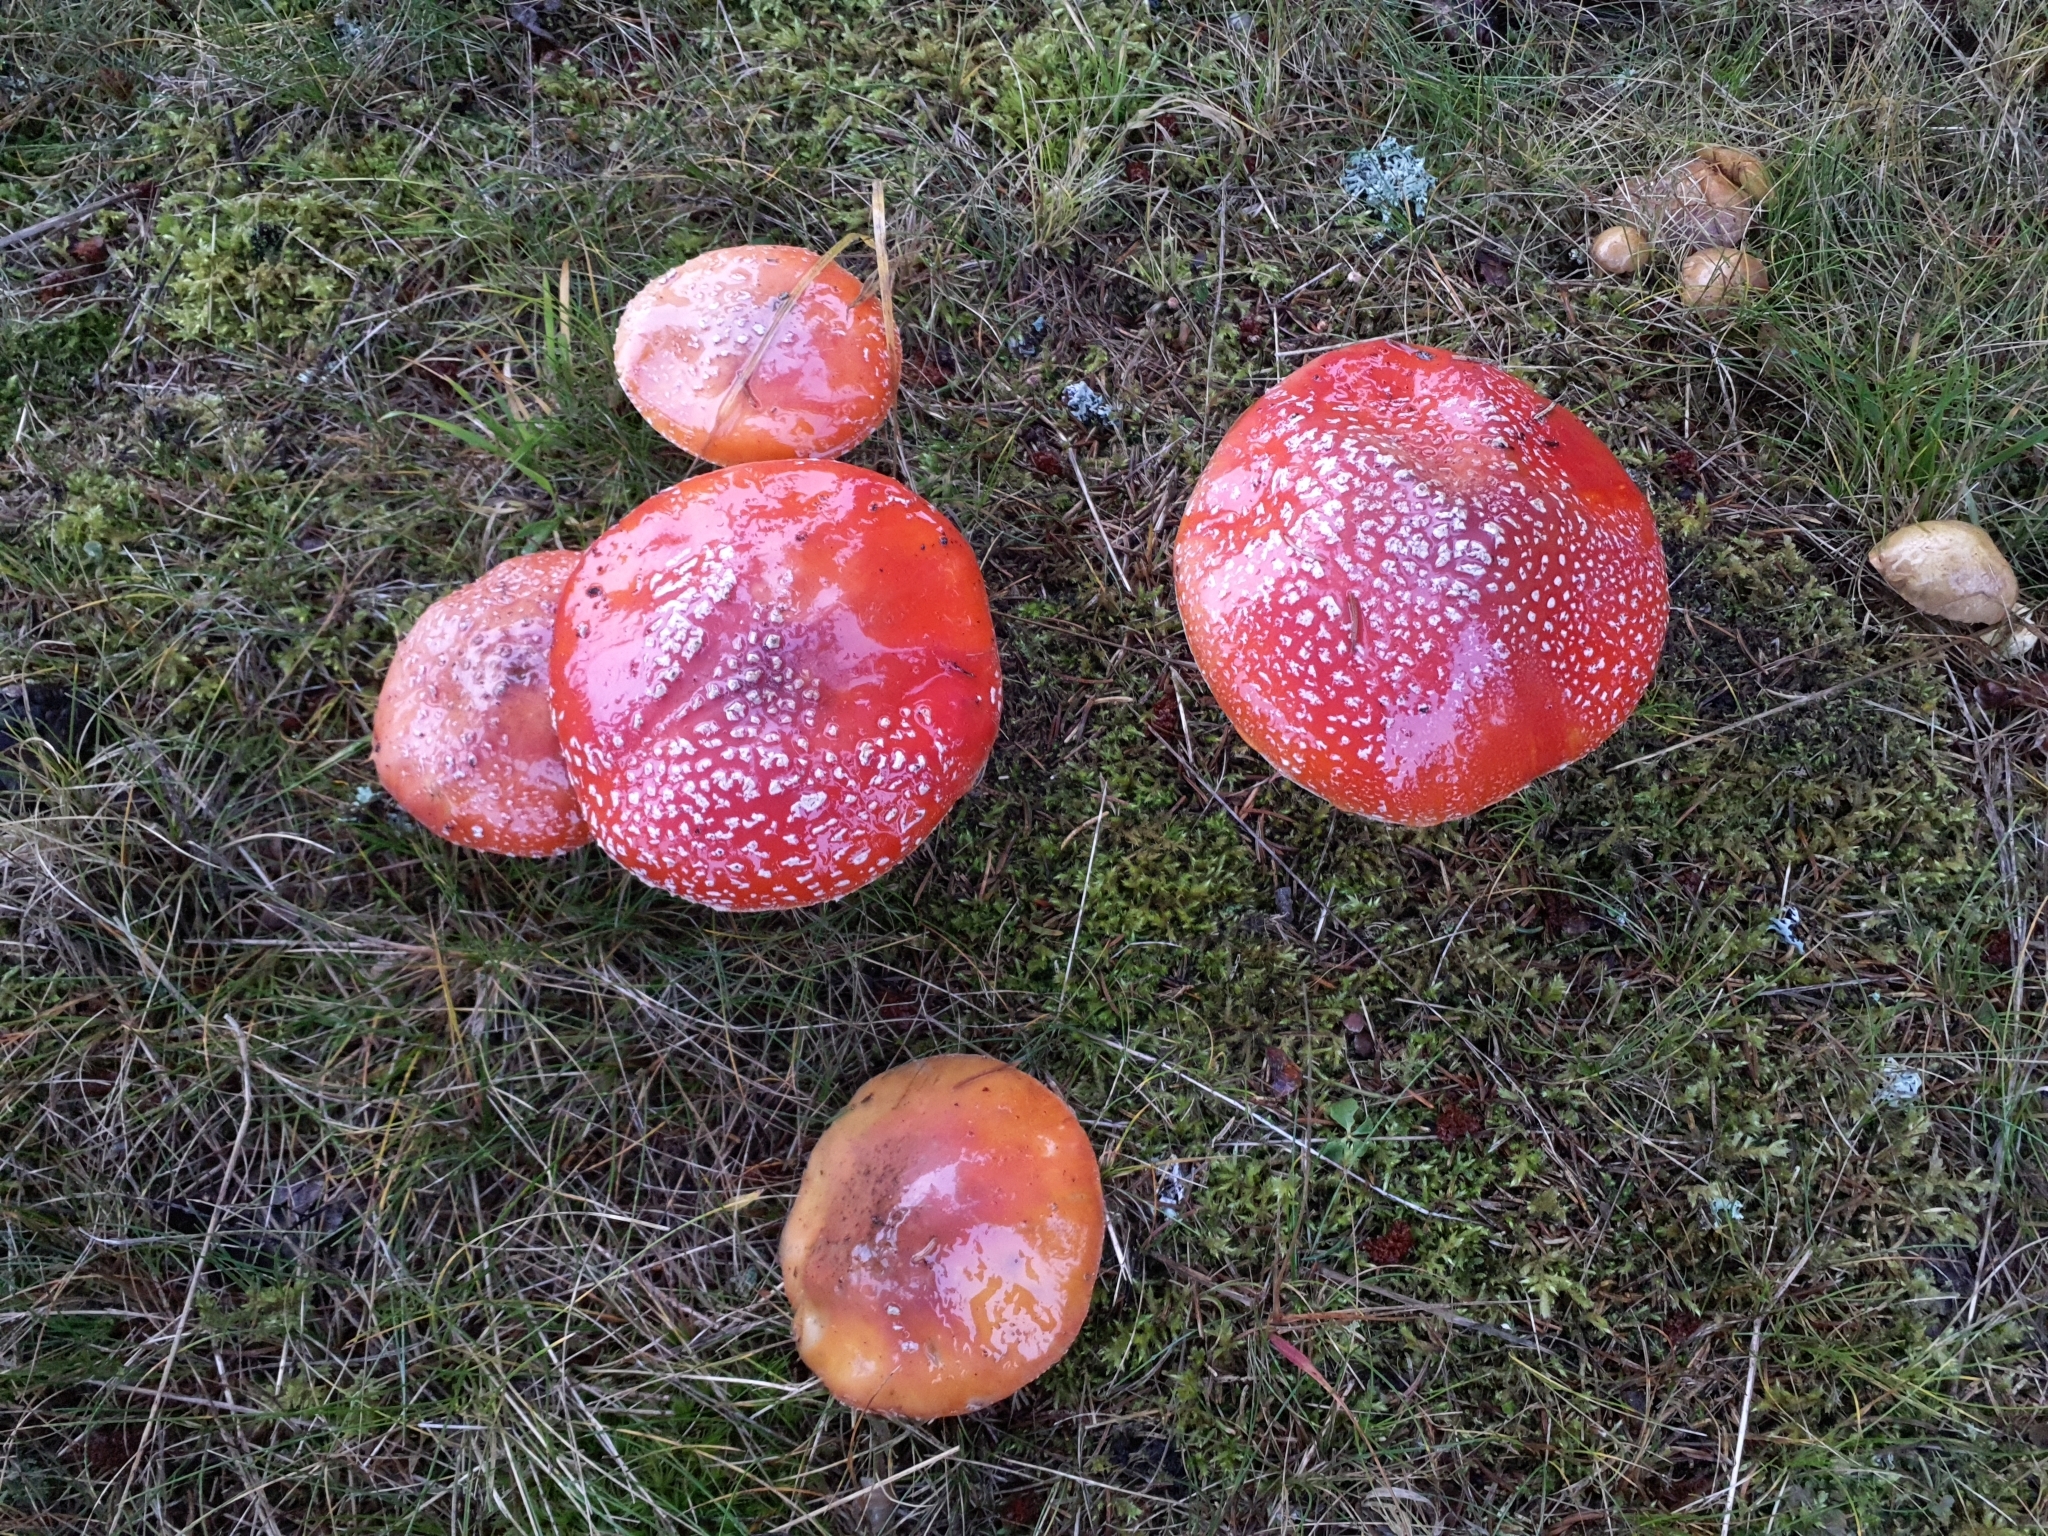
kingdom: Fungi
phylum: Basidiomycota
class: Agaricomycetes
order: Agaricales
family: Amanitaceae
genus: Amanita
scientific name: Amanita muscaria
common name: Fly agaric
